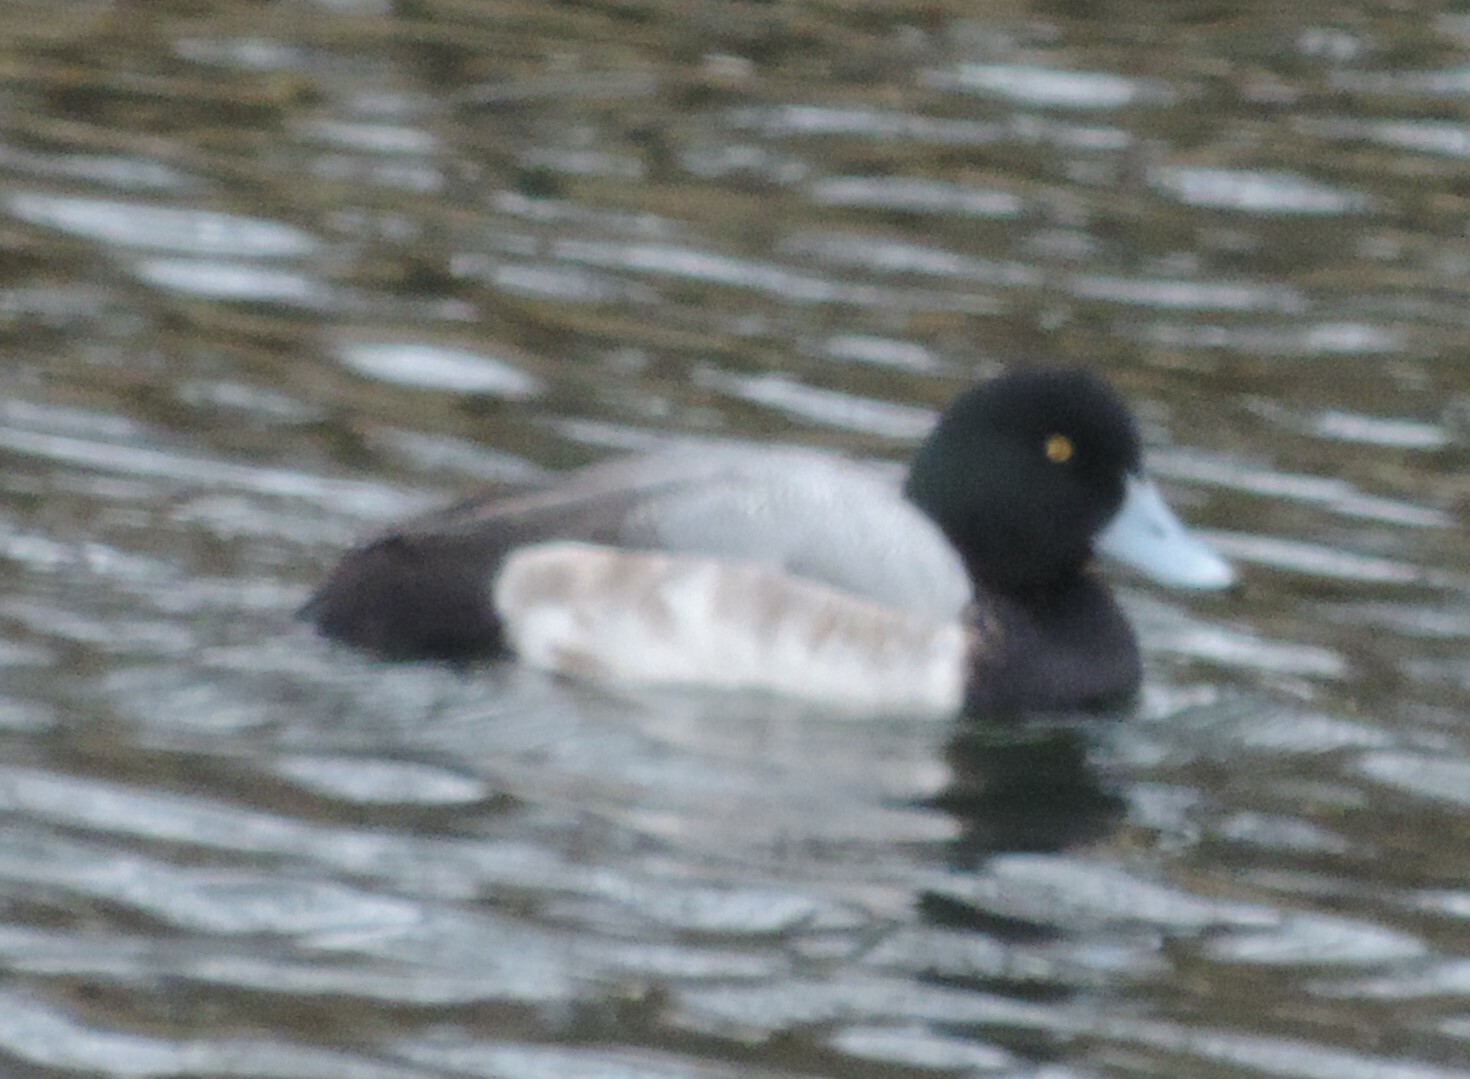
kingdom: Animalia
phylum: Chordata
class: Aves
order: Anseriformes
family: Anatidae
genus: Aythya
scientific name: Aythya marila
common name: Greater scaup
